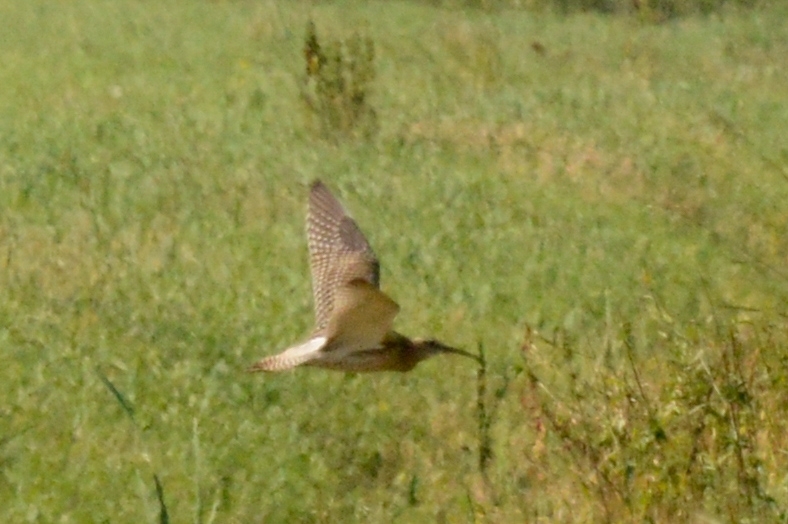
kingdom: Animalia
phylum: Chordata
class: Aves
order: Charadriiformes
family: Scolopacidae
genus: Numenius
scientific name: Numenius arquata
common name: Eurasian curlew
